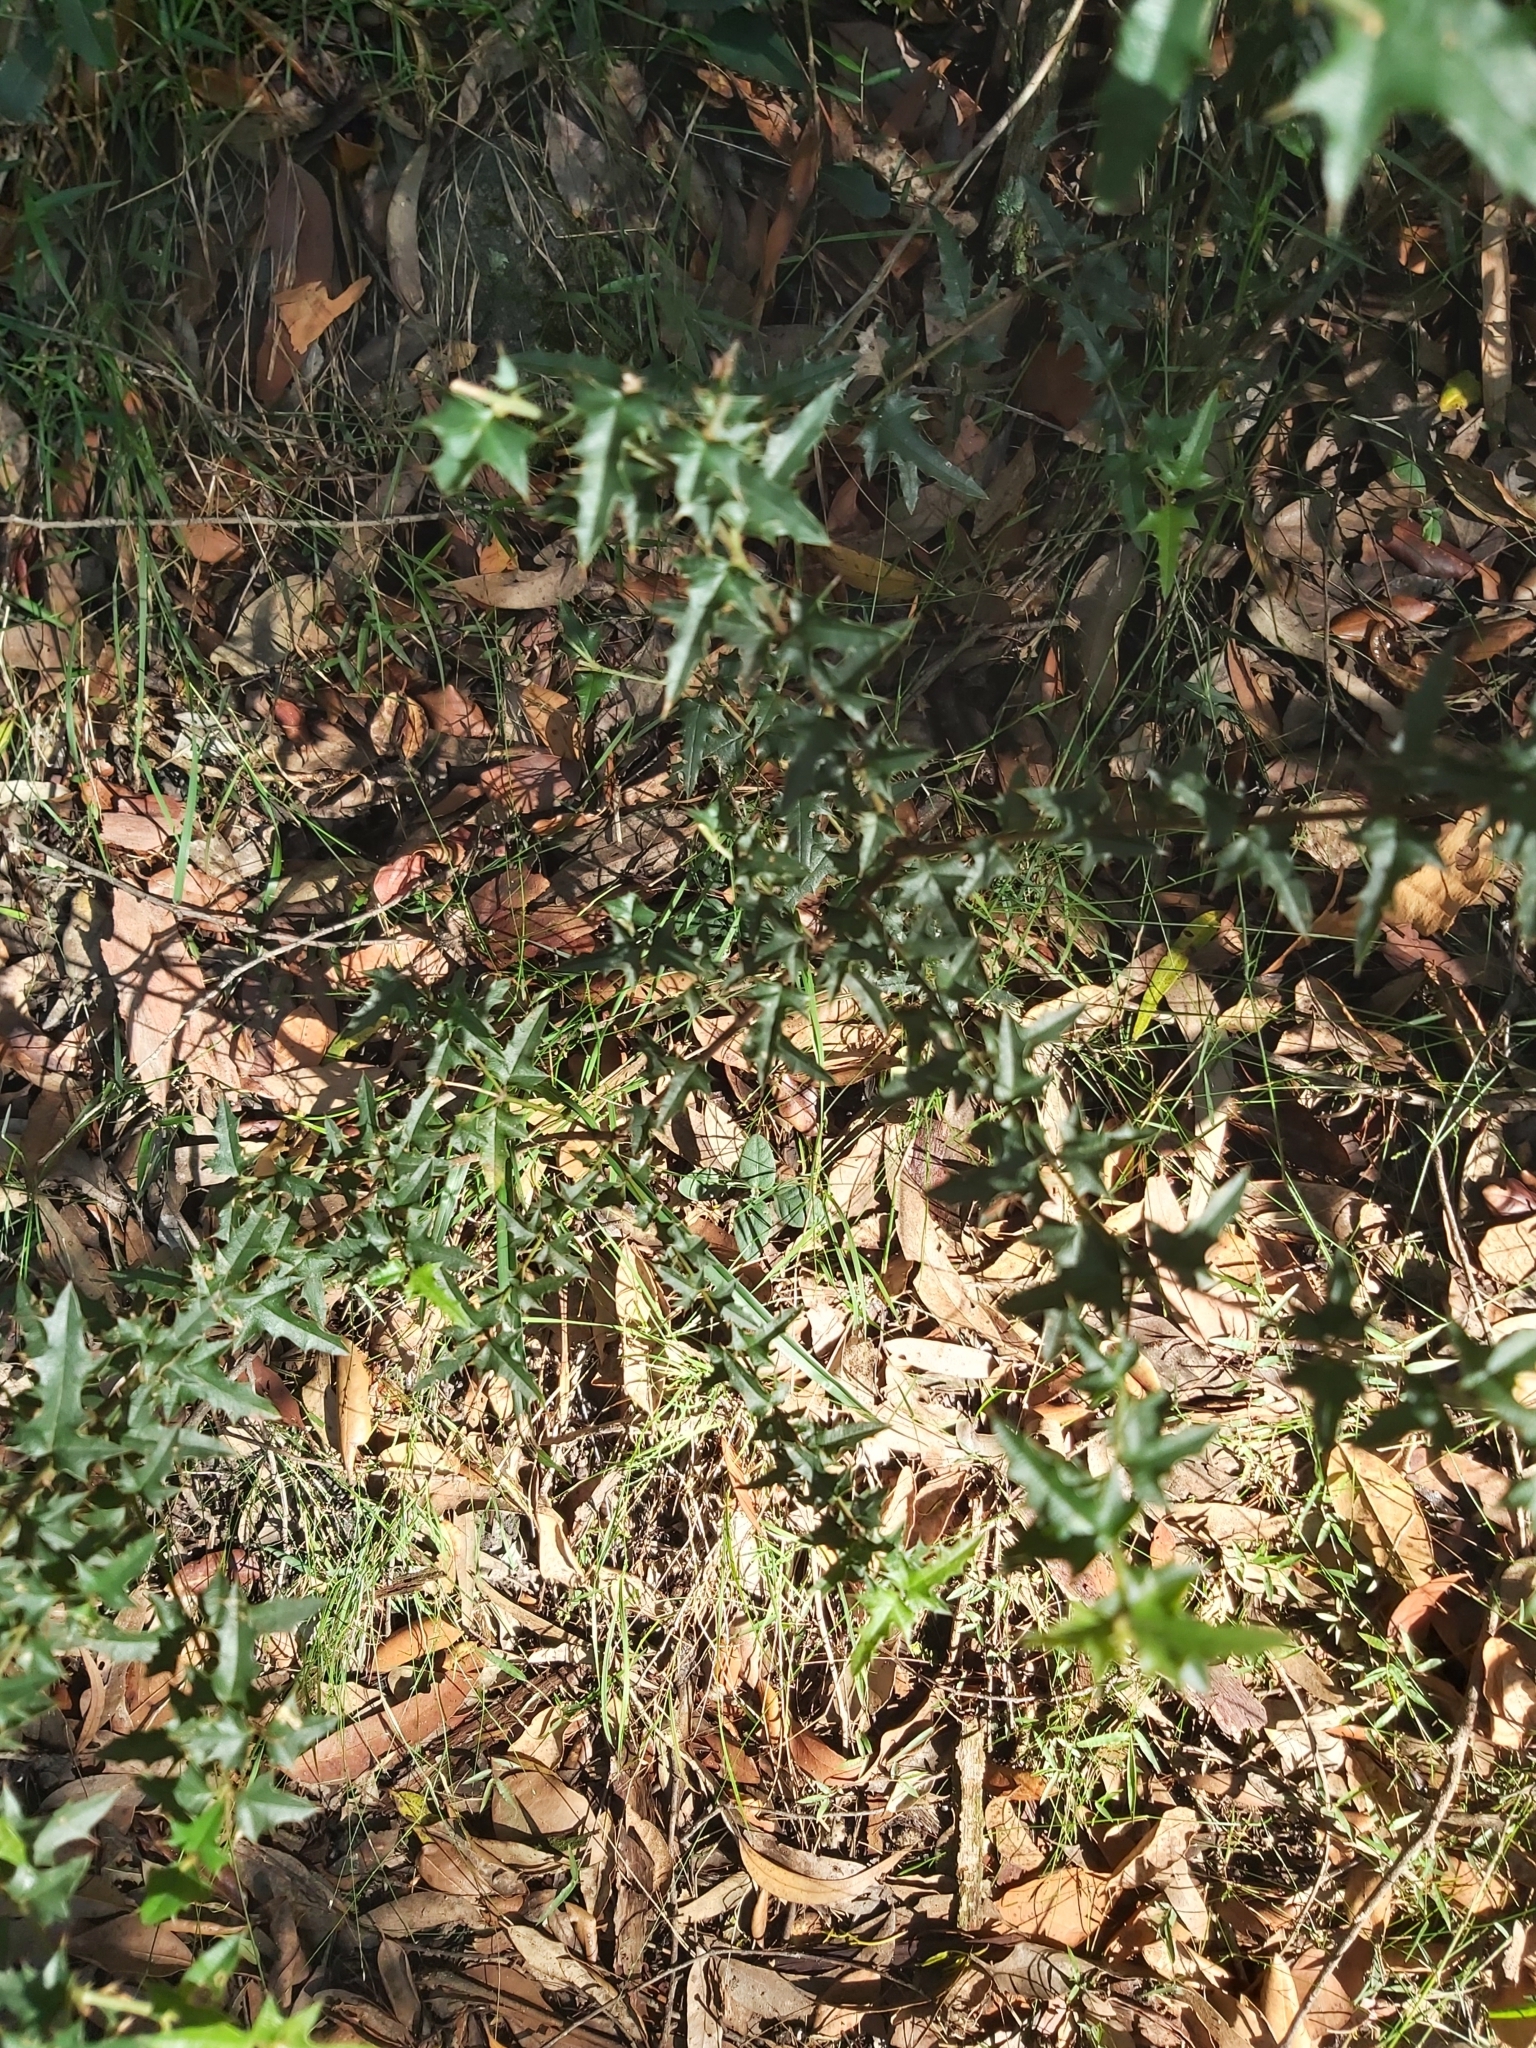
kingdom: Plantae
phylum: Tracheophyta
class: Magnoliopsida
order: Fabales
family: Fabaceae
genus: Podolobium
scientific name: Podolobium ilicifolium
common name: Native holly
